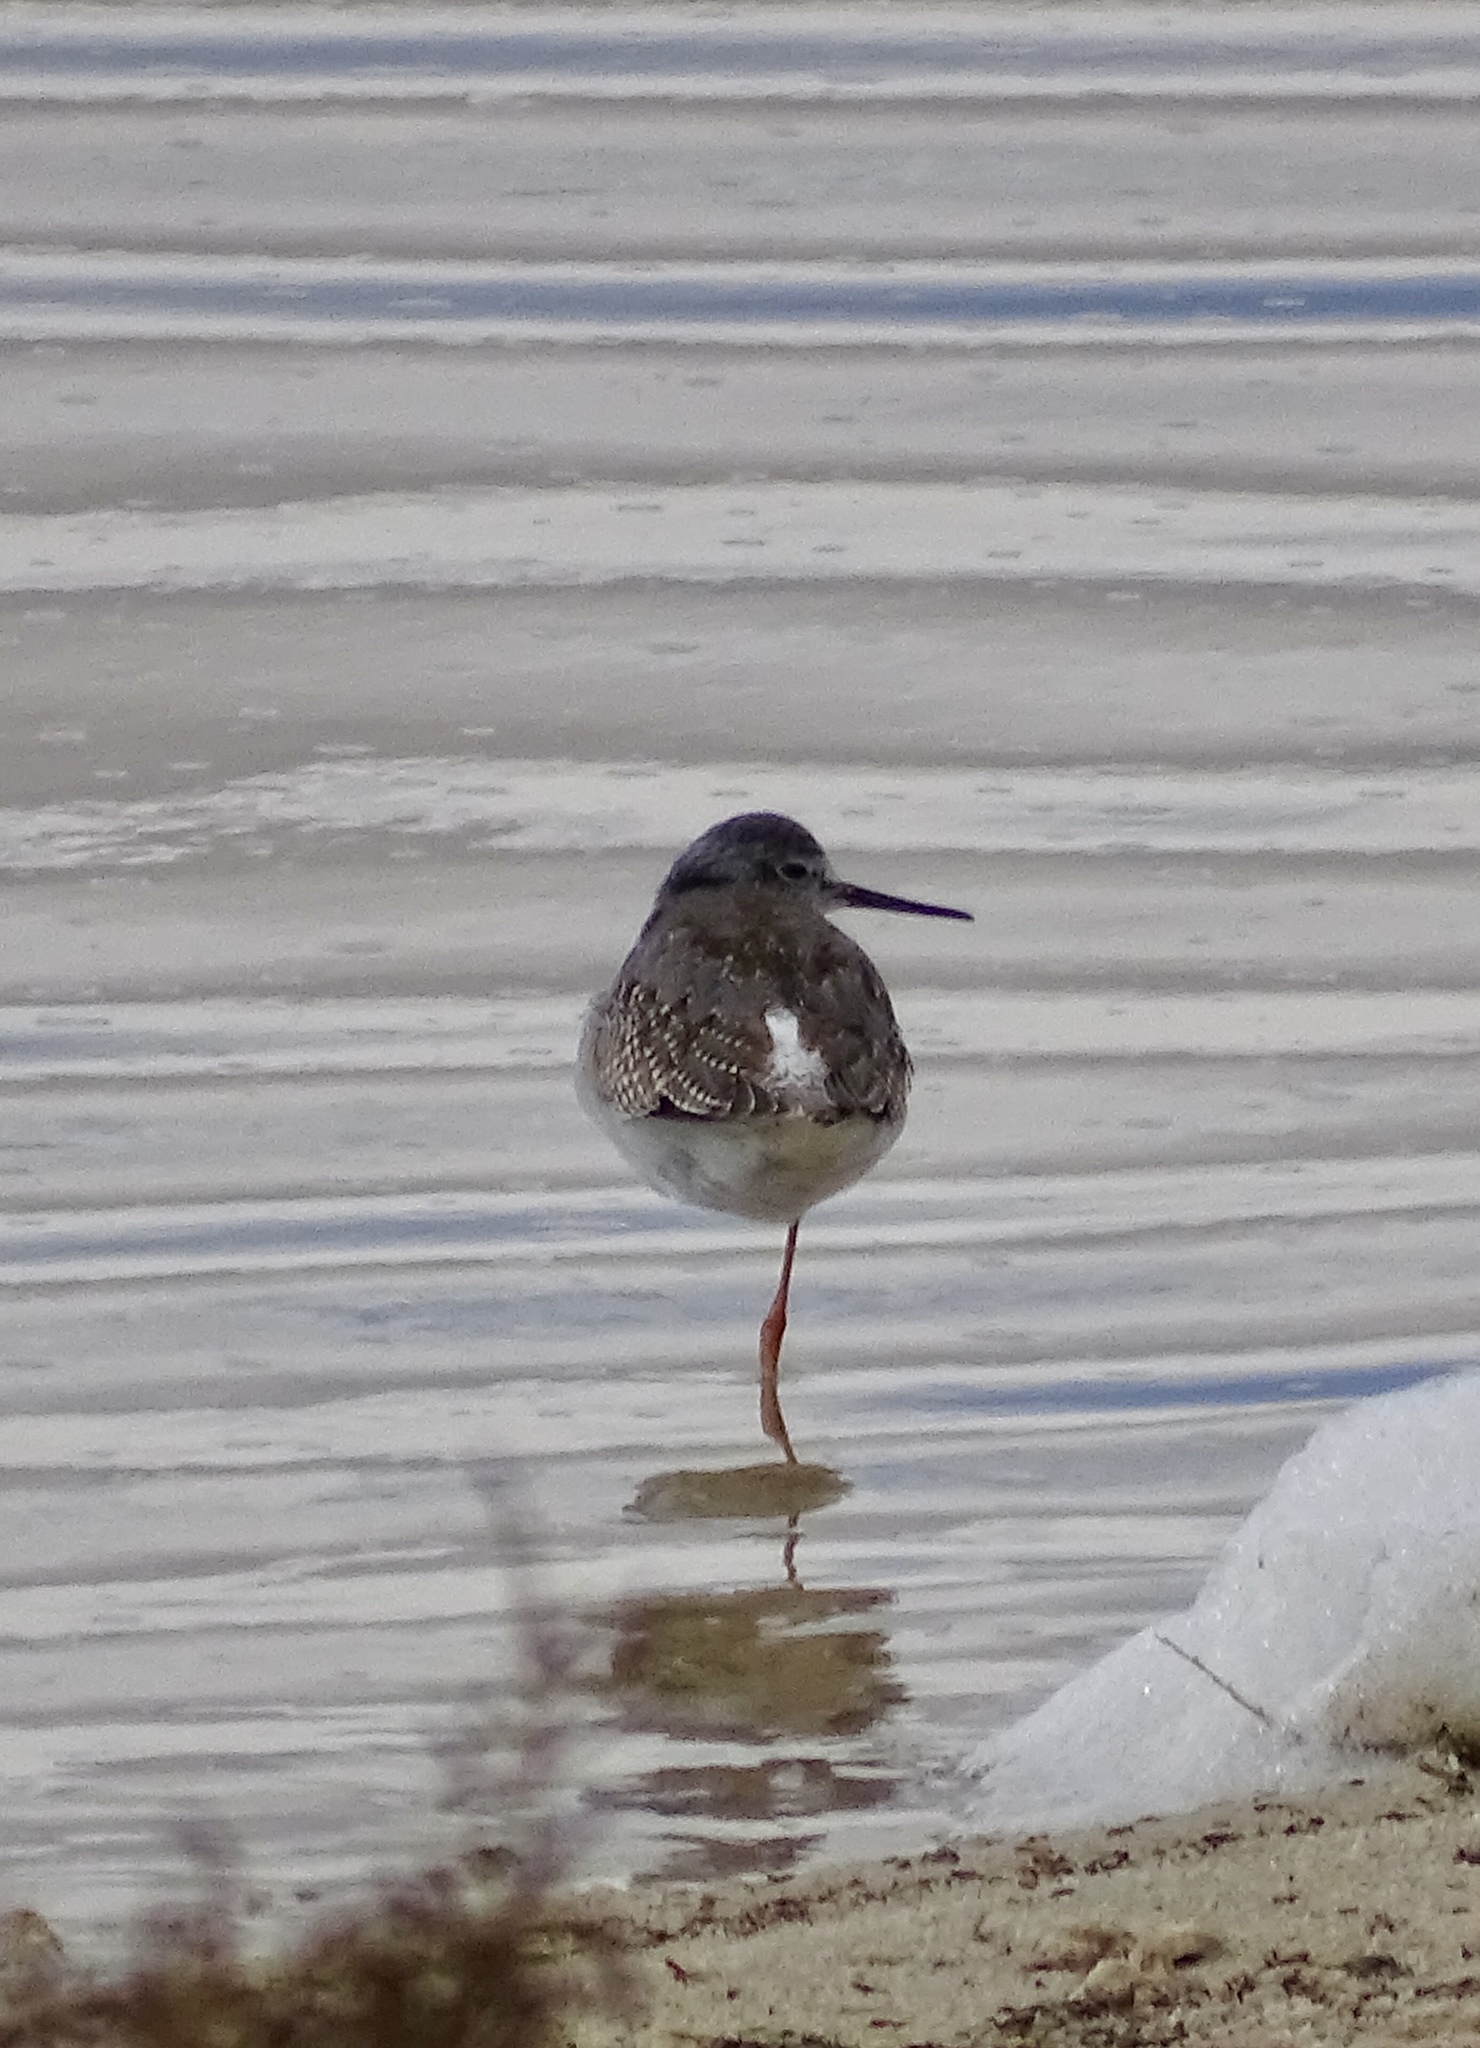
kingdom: Animalia
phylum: Chordata
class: Aves
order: Charadriiformes
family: Scolopacidae
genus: Tringa
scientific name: Tringa melanoleuca
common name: Greater yellowlegs
